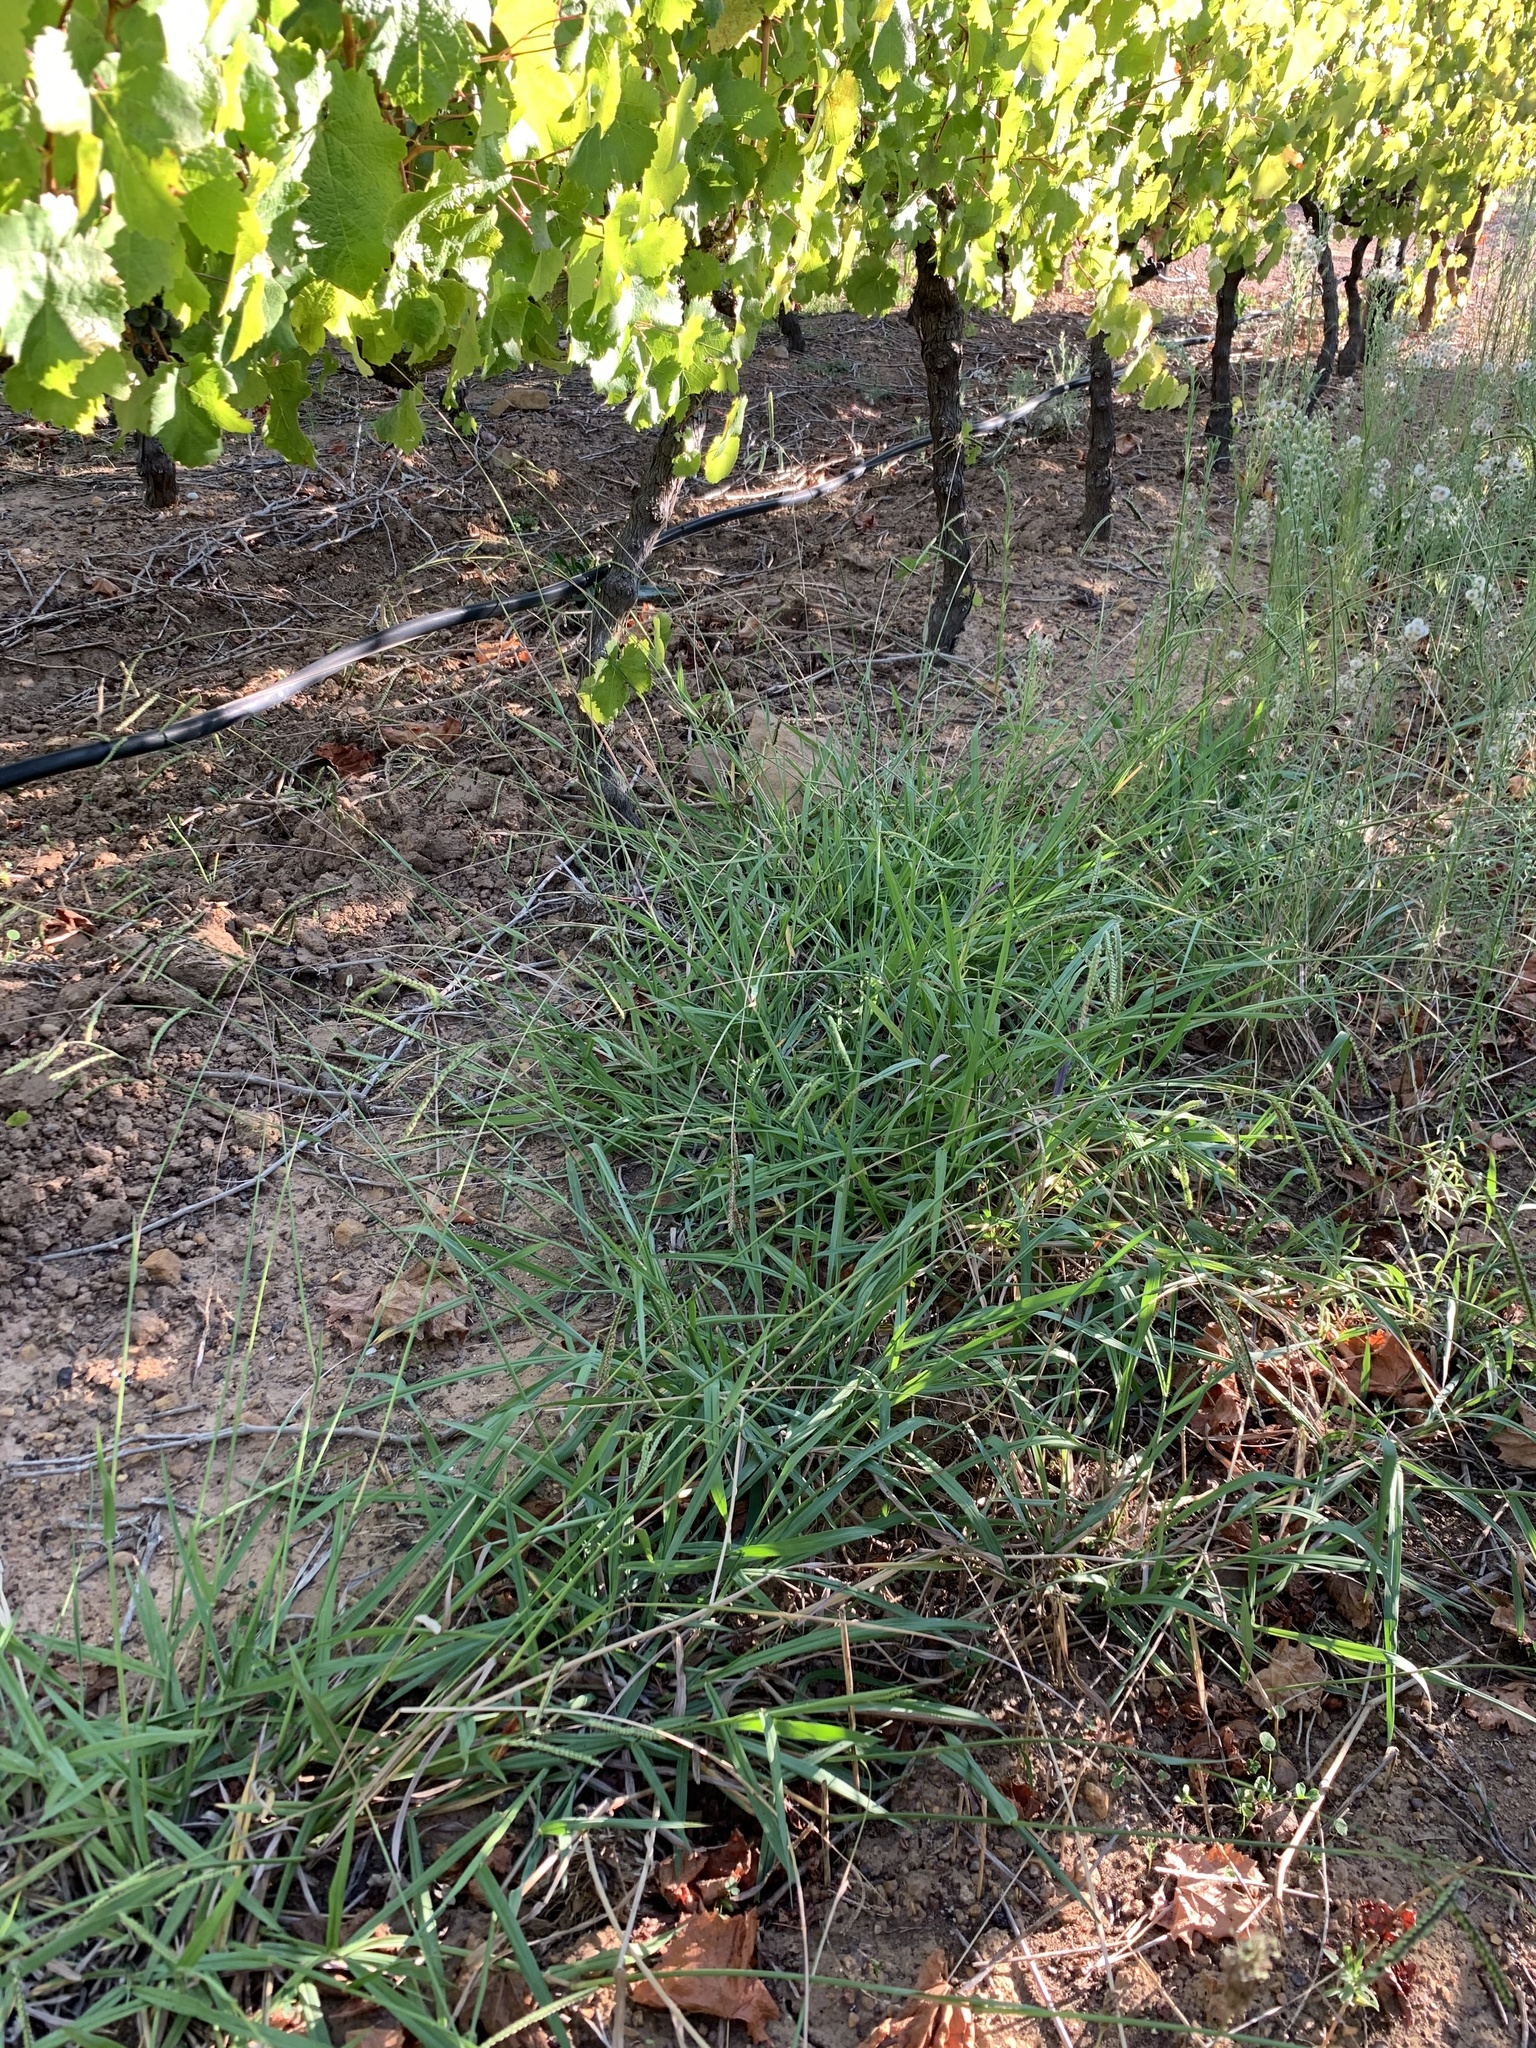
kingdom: Plantae
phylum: Tracheophyta
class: Liliopsida
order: Poales
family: Poaceae
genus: Paspalum
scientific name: Paspalum dilatatum
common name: Dallisgrass
